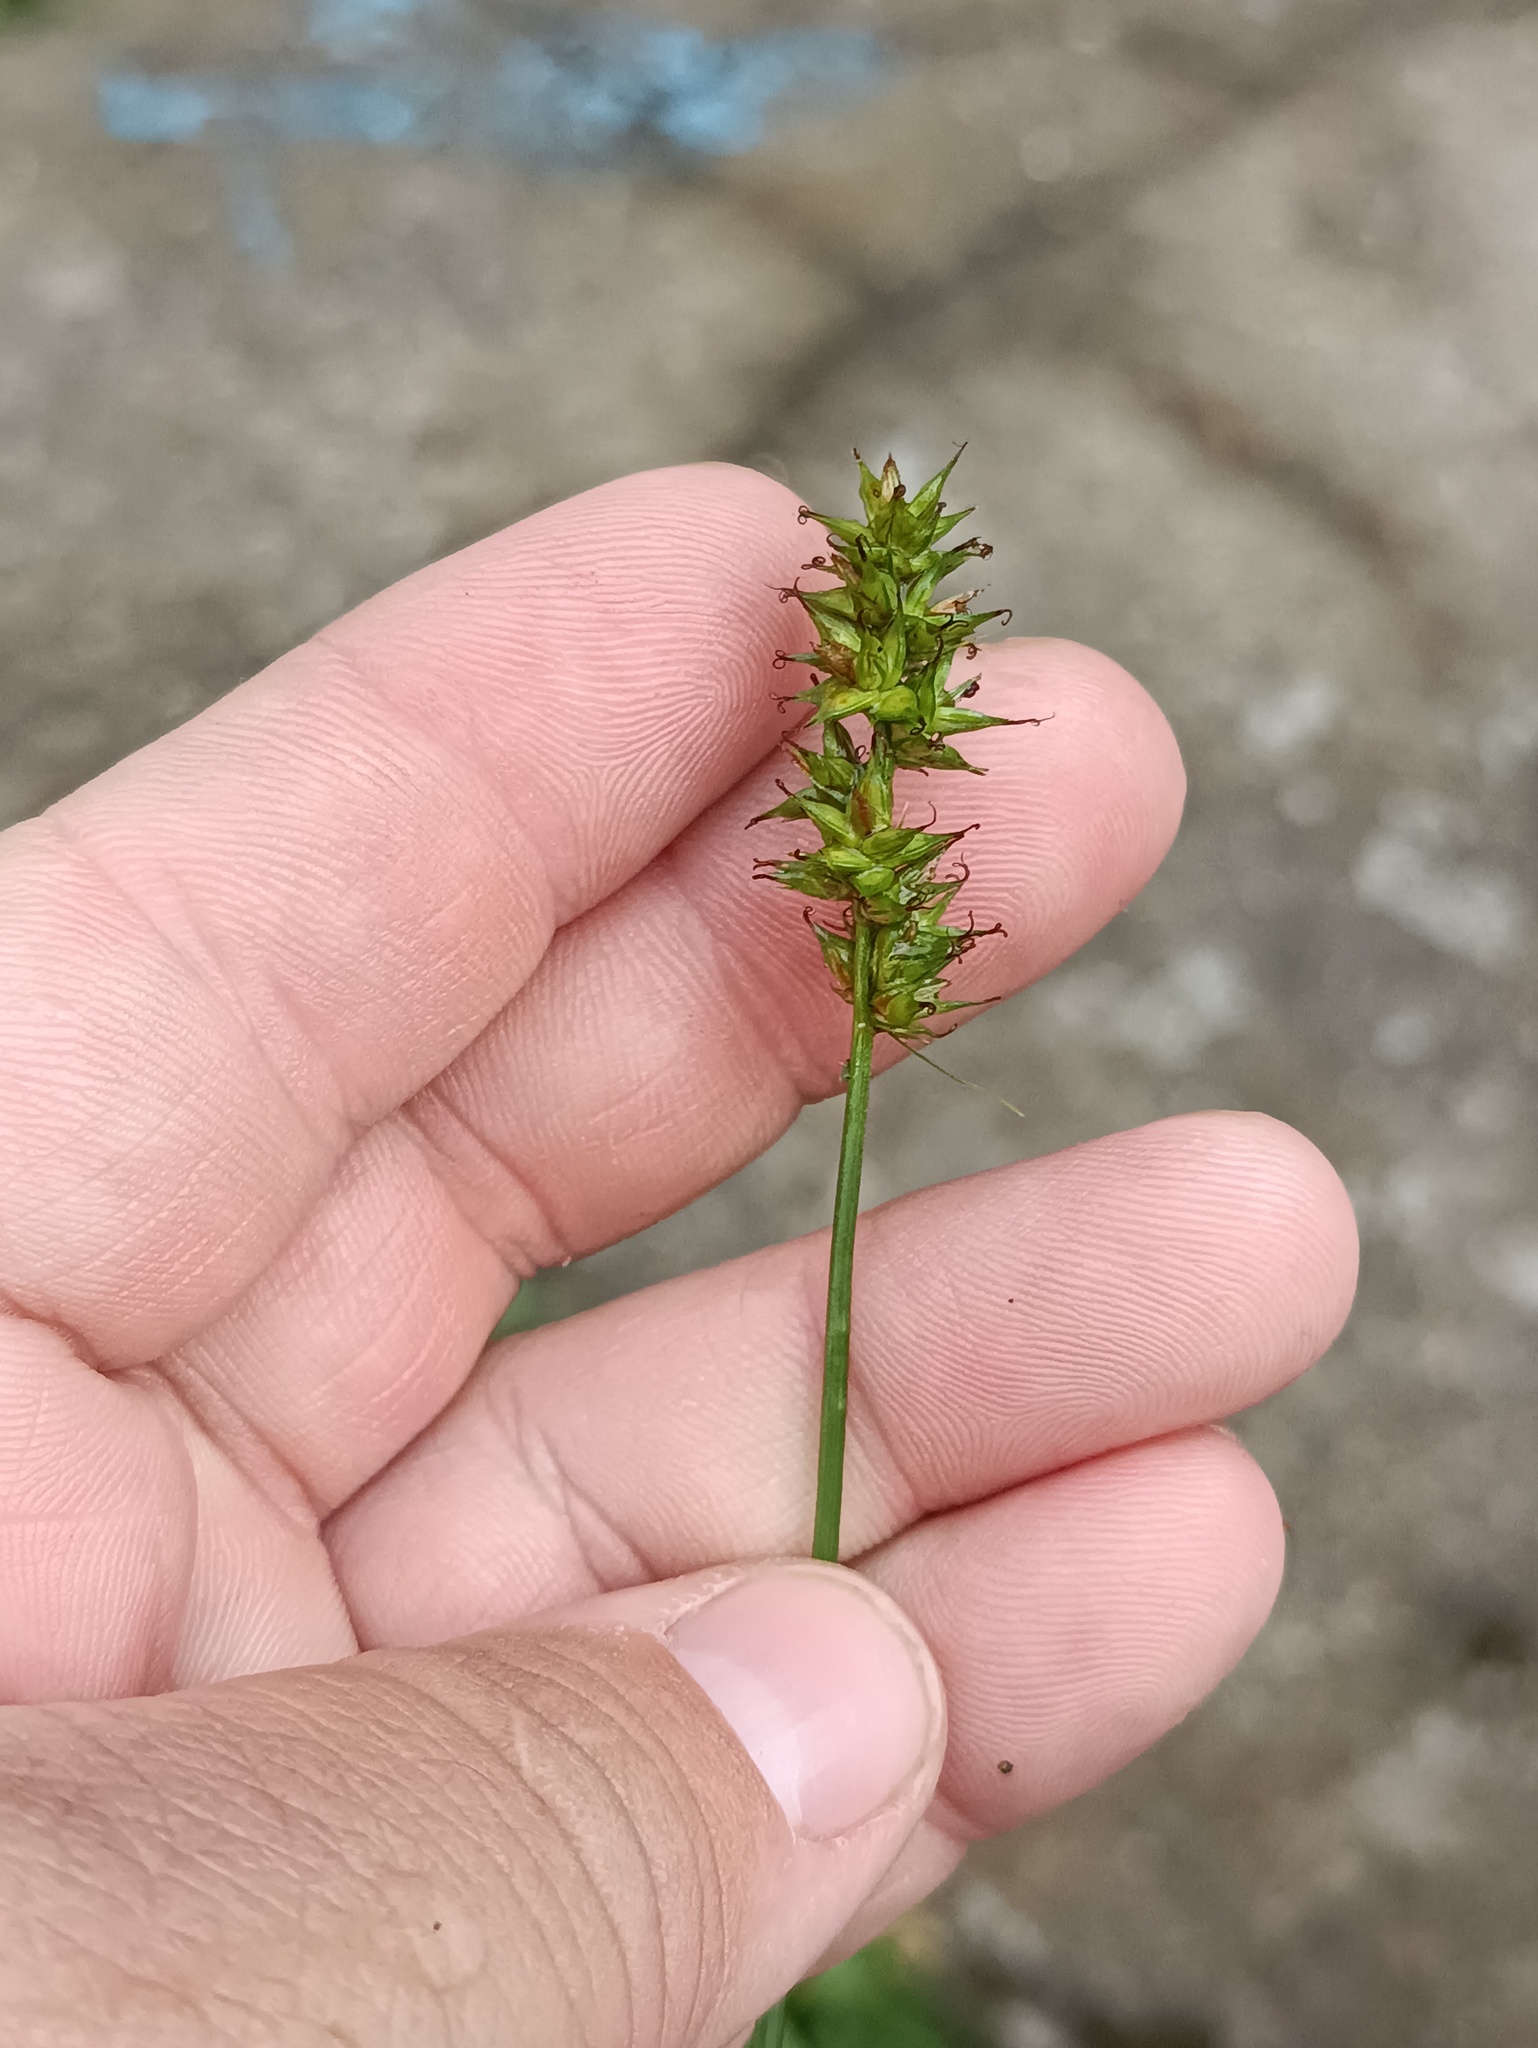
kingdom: Plantae
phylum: Tracheophyta
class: Liliopsida
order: Poales
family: Cyperaceae
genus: Carex
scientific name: Carex spicata
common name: Spiked sedge
